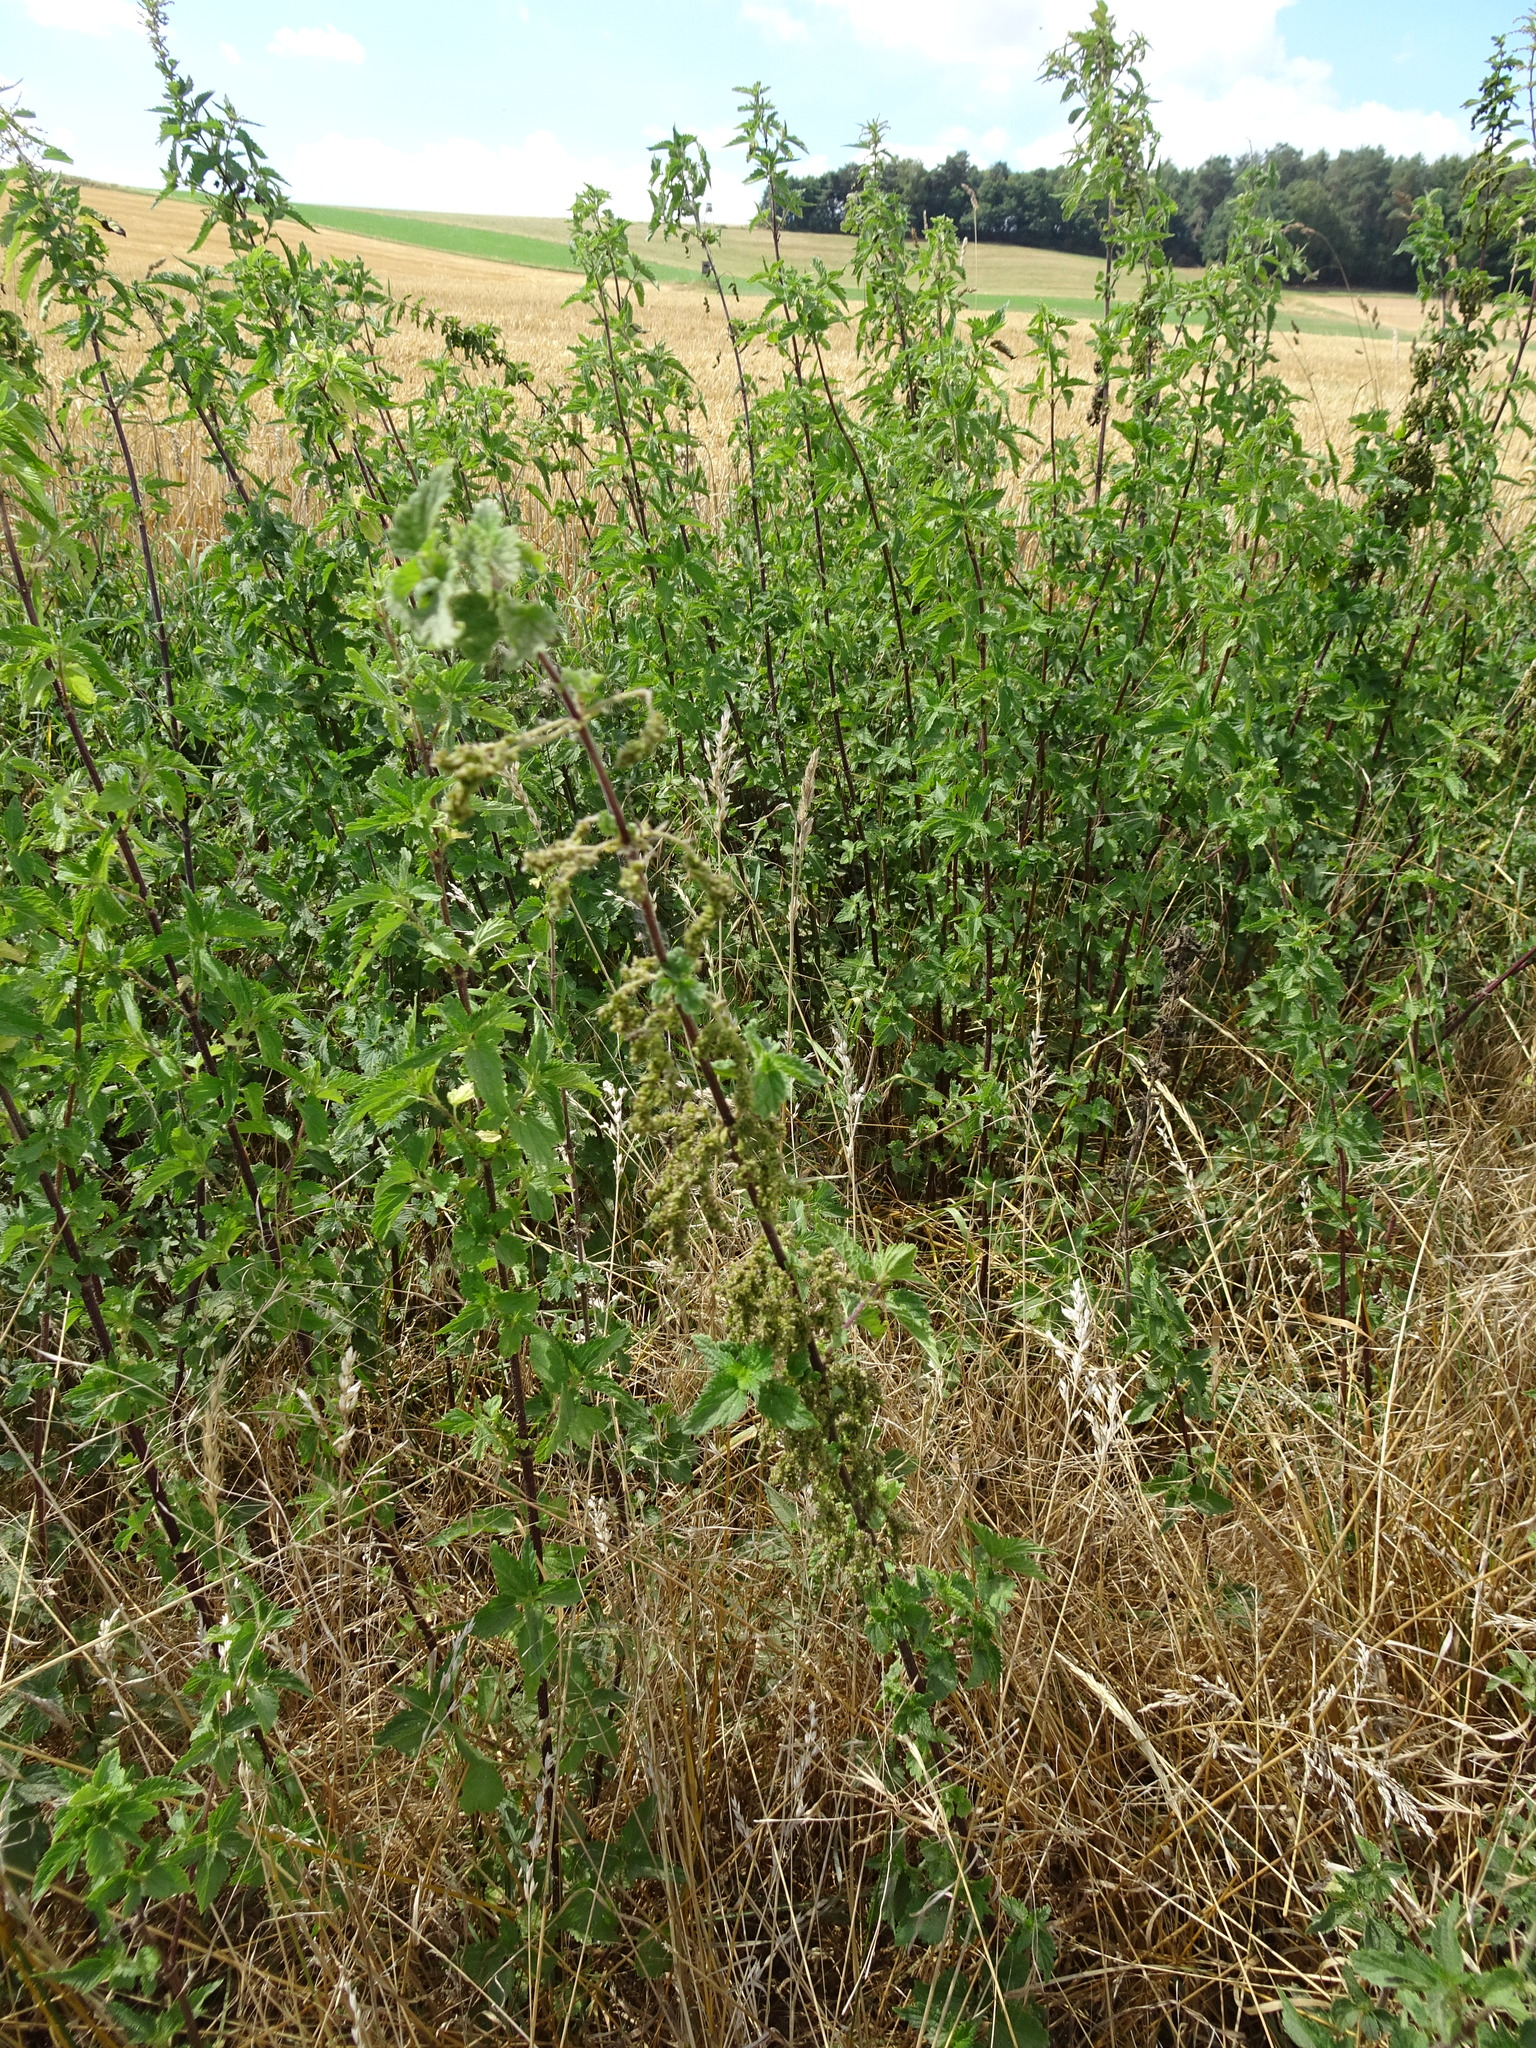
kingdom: Plantae
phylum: Tracheophyta
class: Magnoliopsida
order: Rosales
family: Urticaceae
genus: Urtica
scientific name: Urtica dioica
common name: Common nettle
